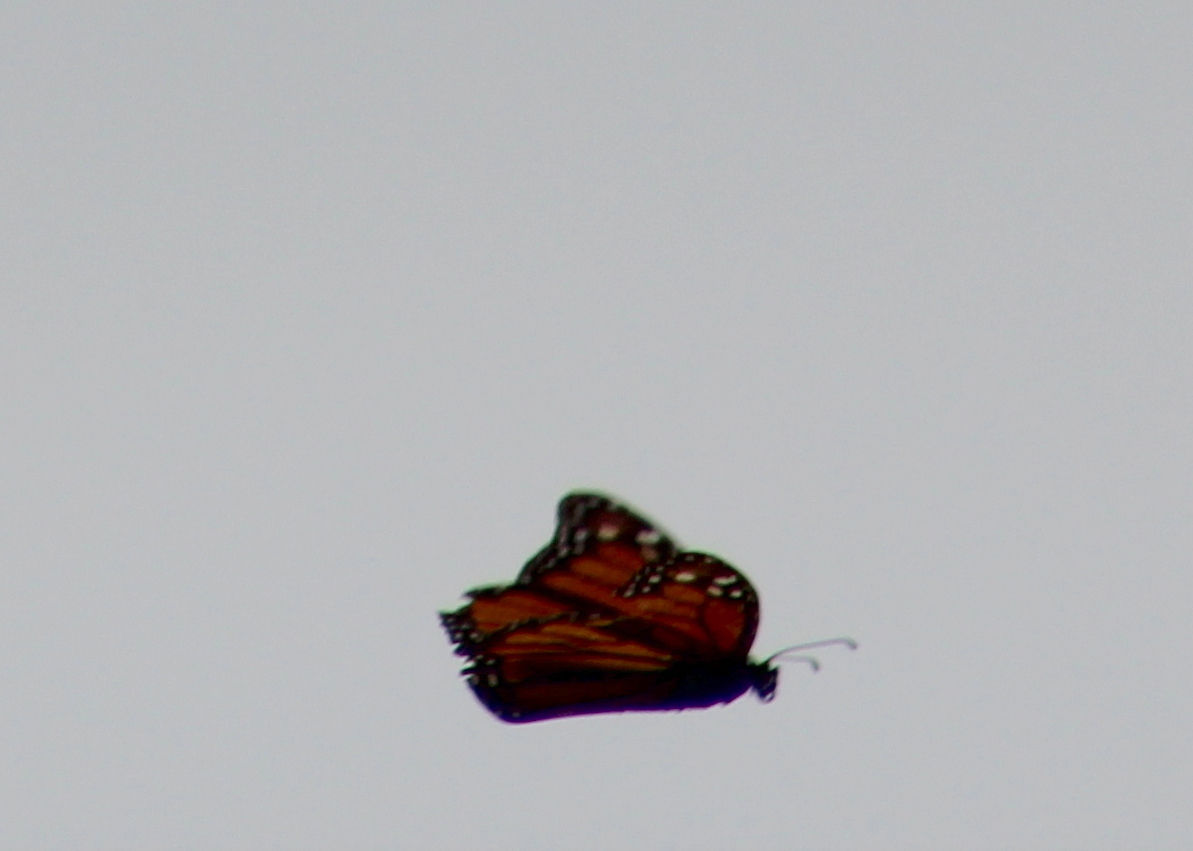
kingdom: Animalia
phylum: Arthropoda
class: Insecta
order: Lepidoptera
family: Nymphalidae
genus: Danaus
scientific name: Danaus plexippus
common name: Monarch
